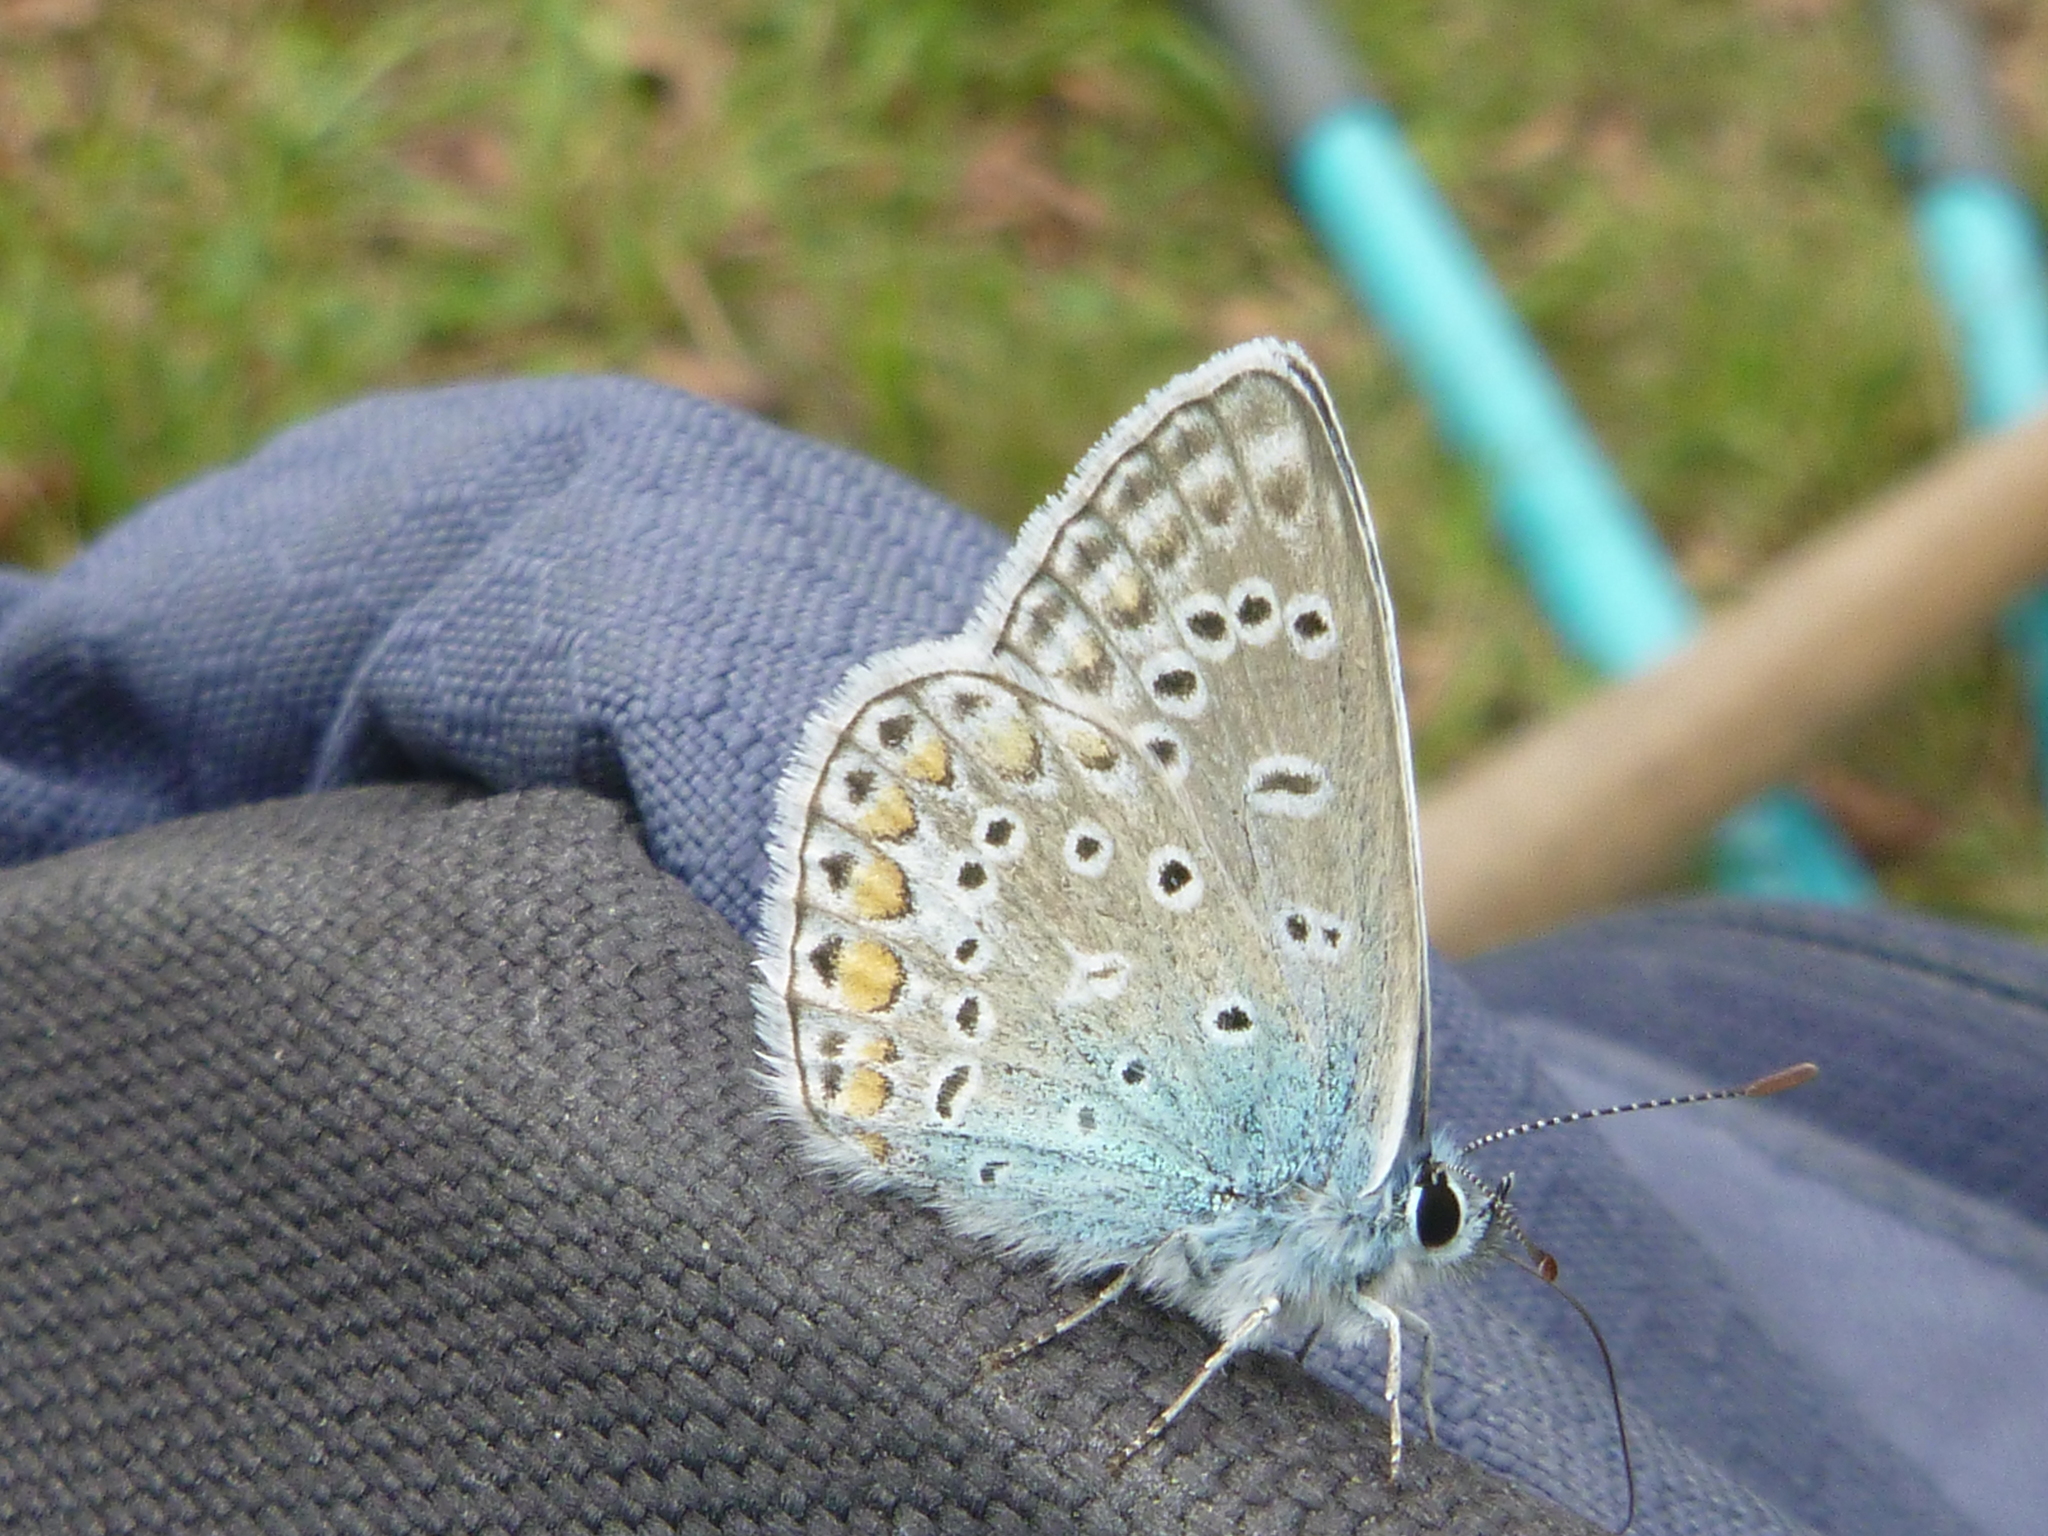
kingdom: Animalia
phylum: Arthropoda
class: Insecta
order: Lepidoptera
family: Lycaenidae
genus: Polyommatus
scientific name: Polyommatus icarus
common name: Common blue
